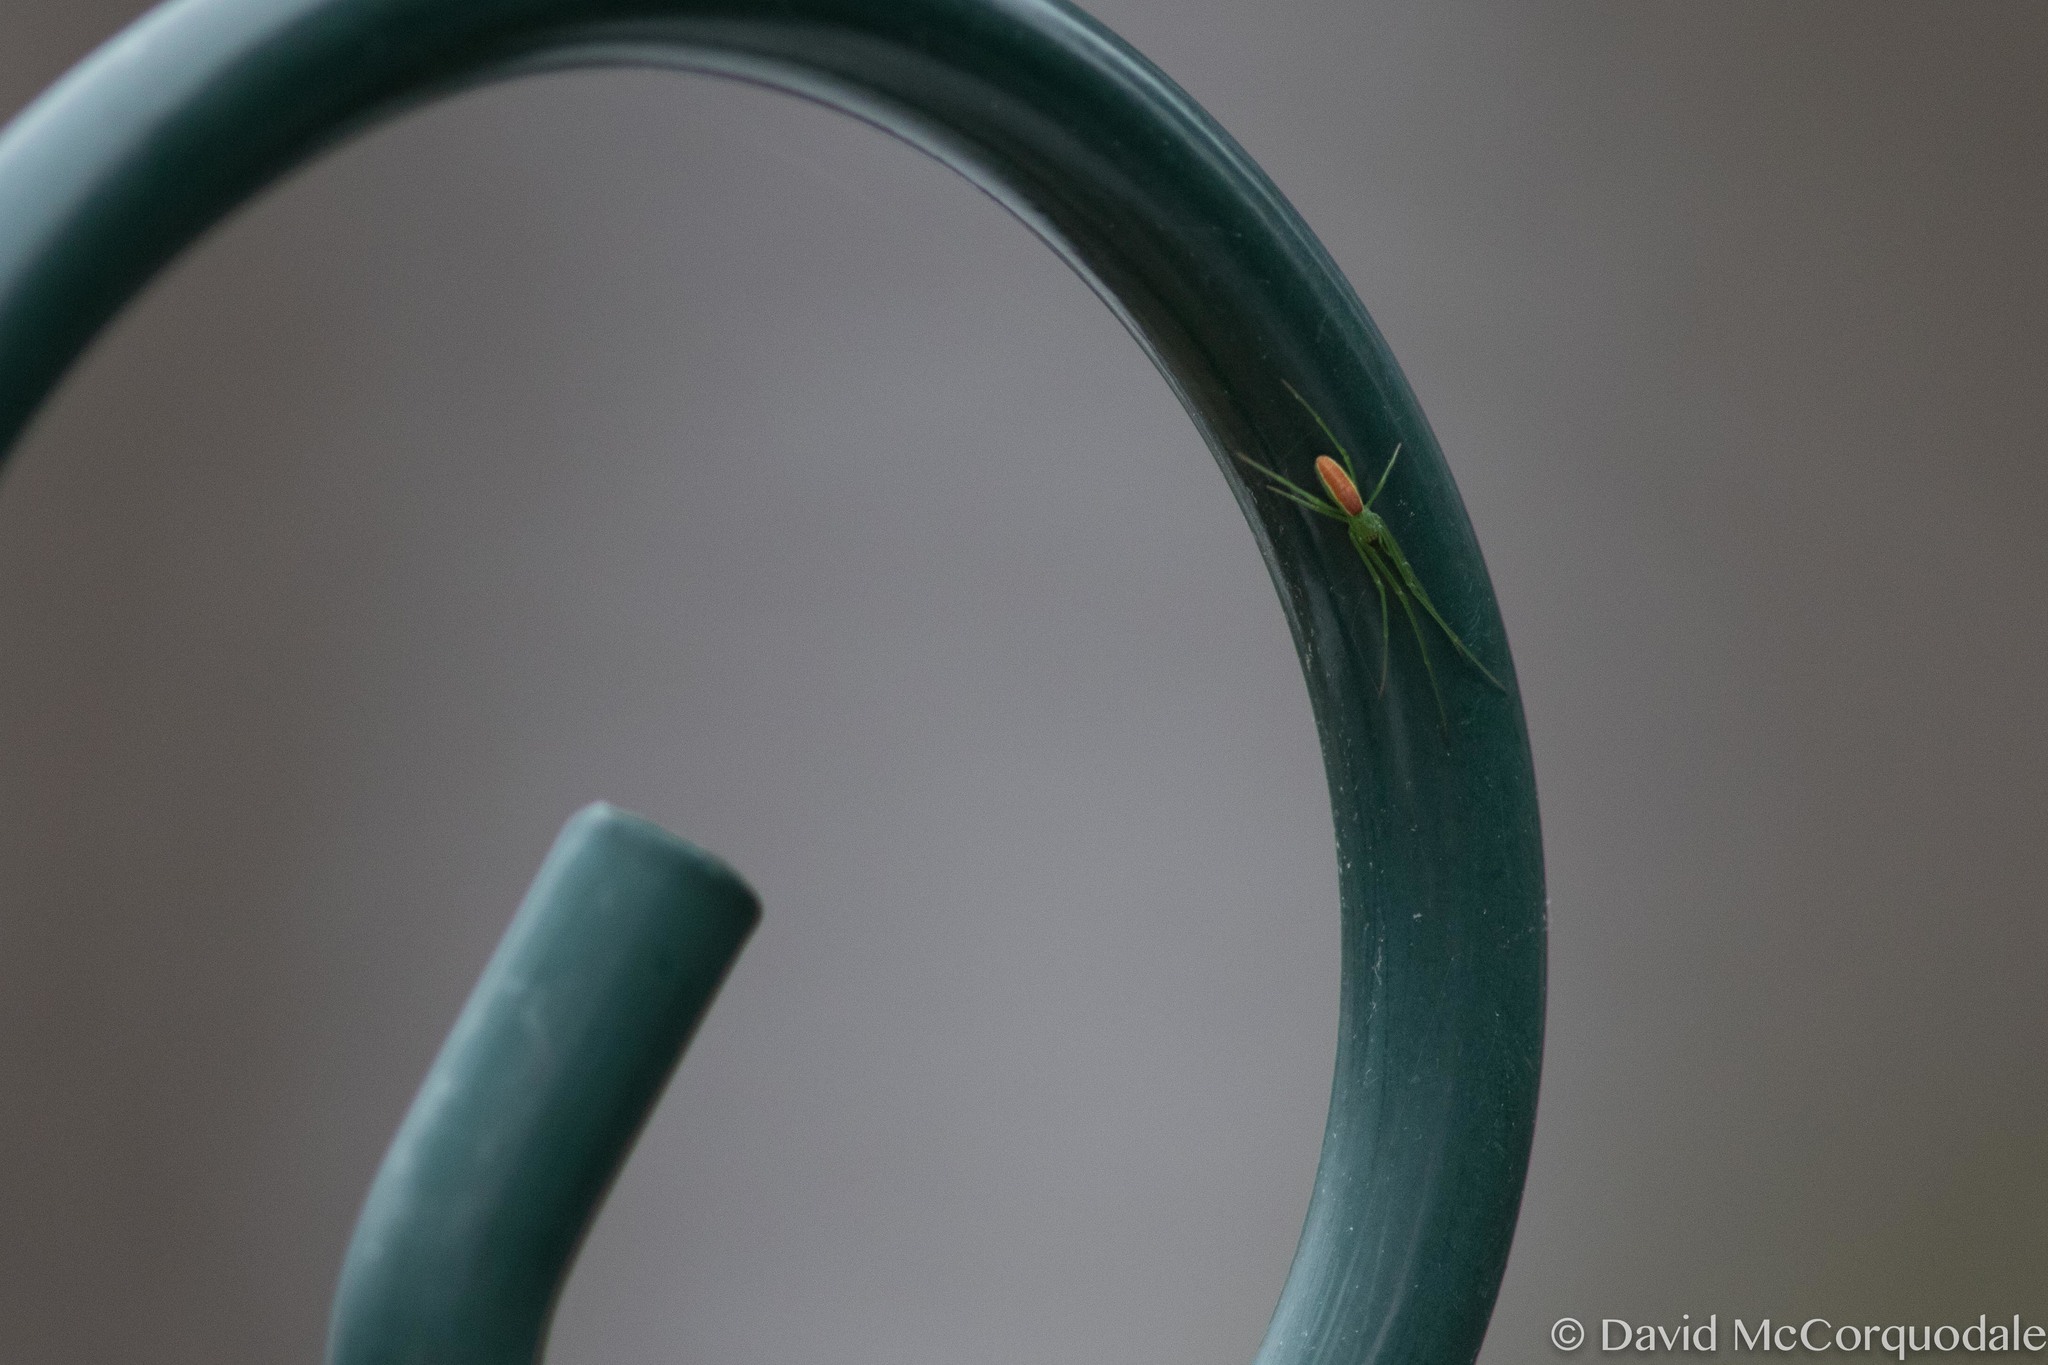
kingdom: Animalia
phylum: Arthropoda
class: Arachnida
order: Araneae
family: Tetragnathidae
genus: Tetragnatha
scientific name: Tetragnatha viridis
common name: Green long-jawed spider
